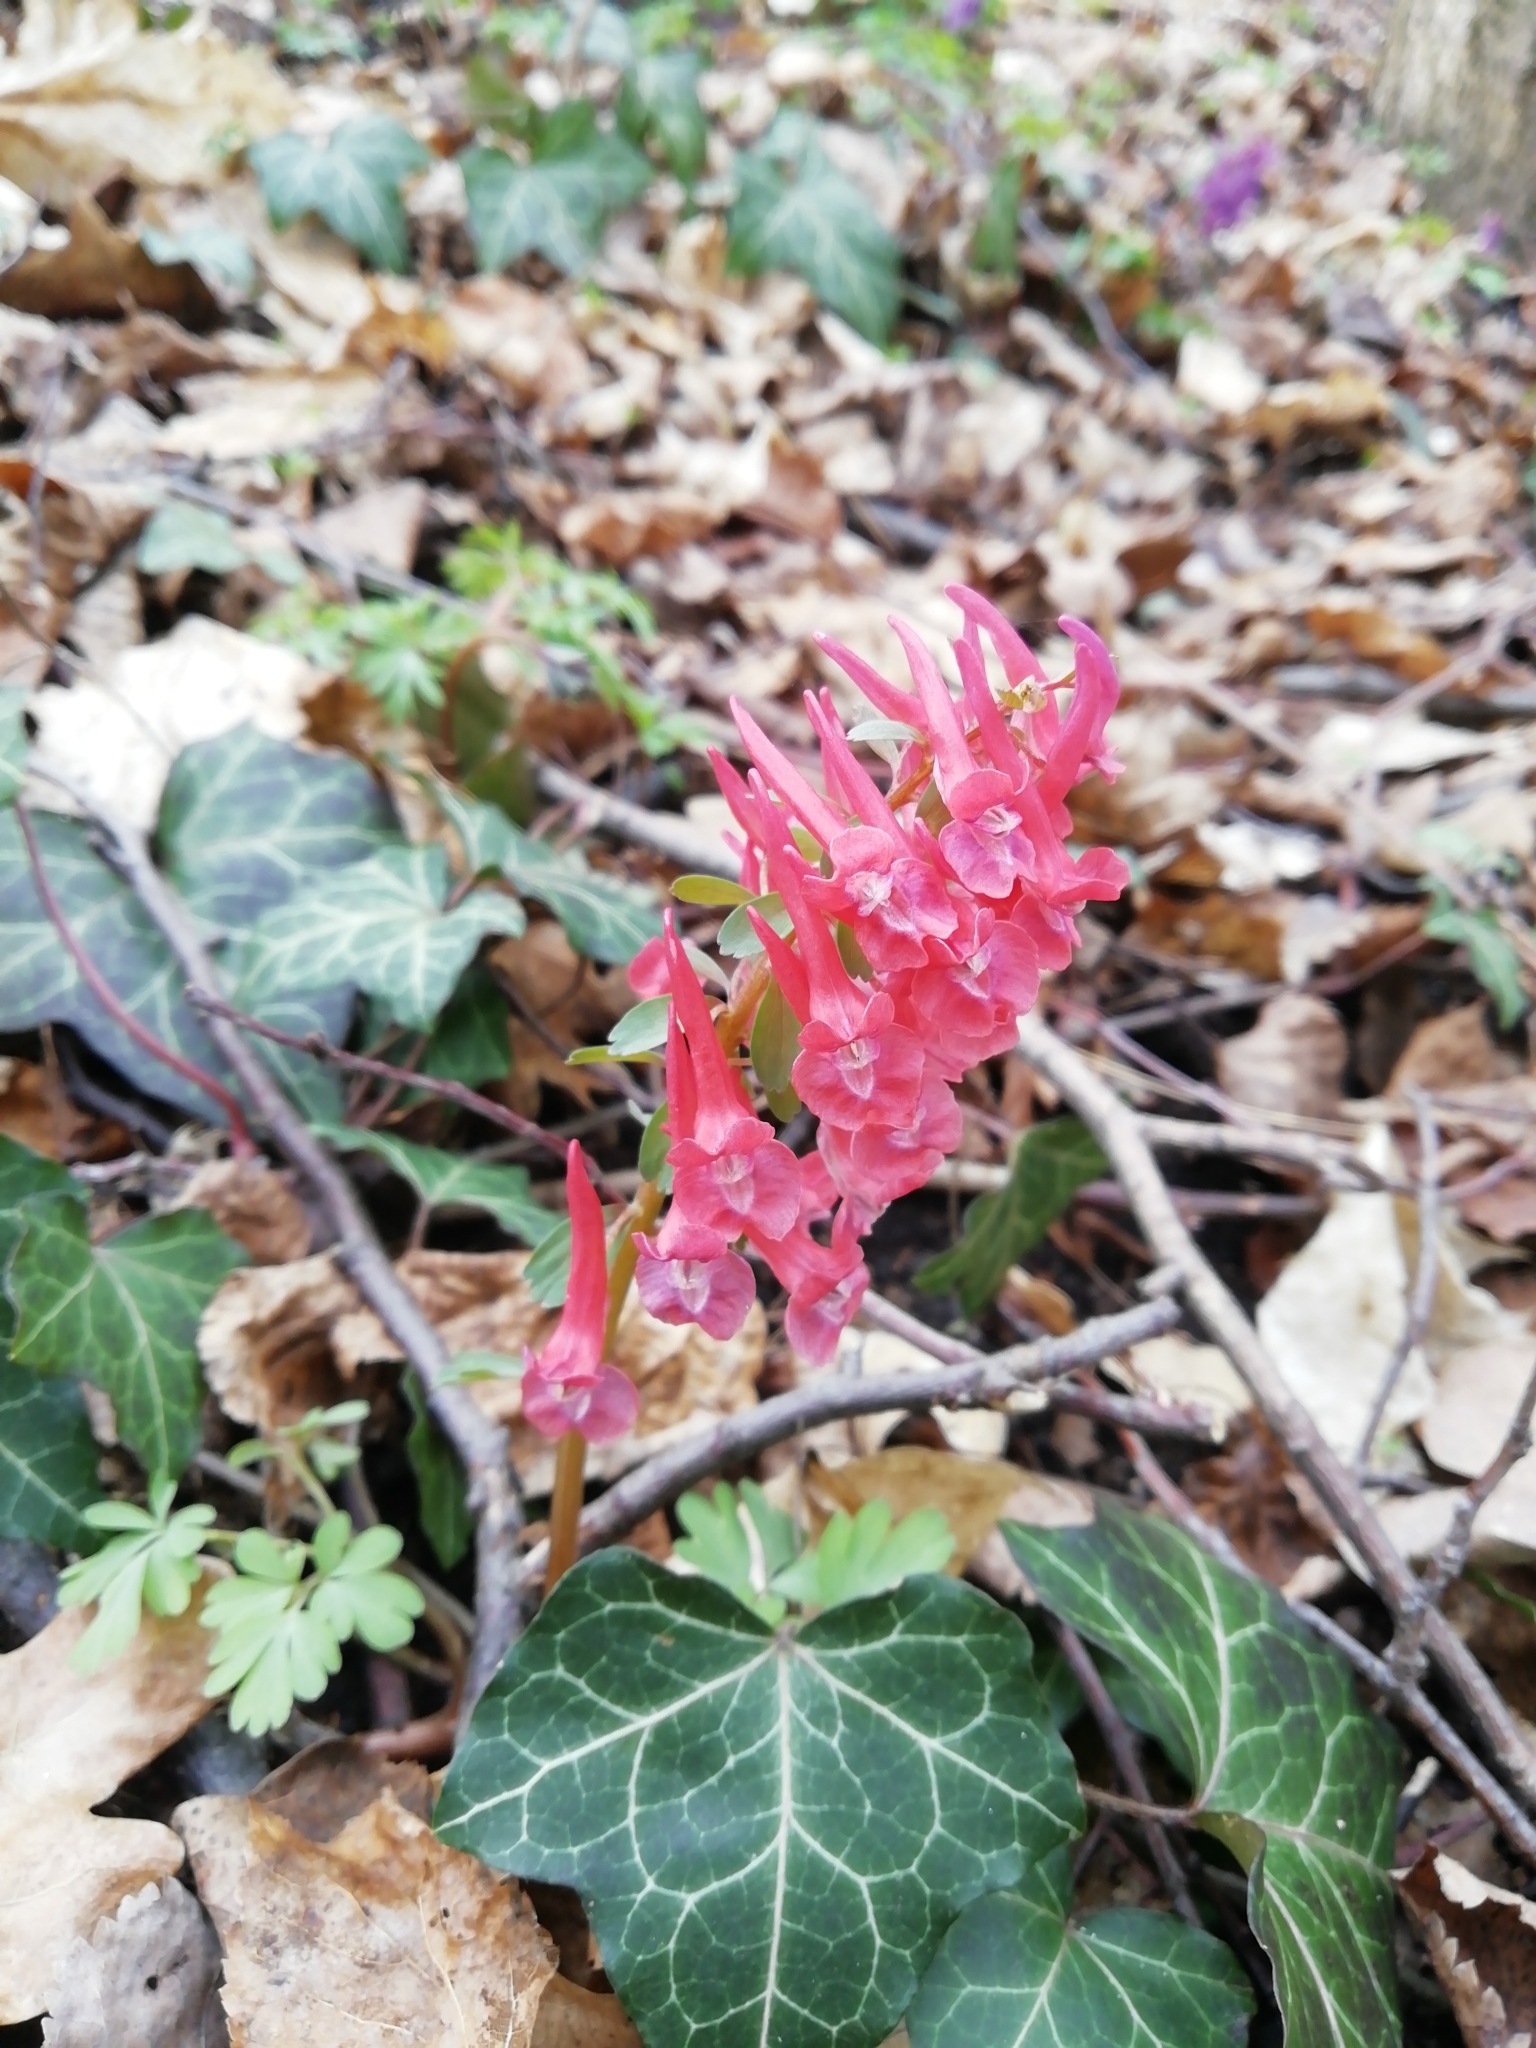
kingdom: Plantae
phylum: Tracheophyta
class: Magnoliopsida
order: Ranunculales
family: Papaveraceae
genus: Corydalis
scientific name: Corydalis solida
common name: Bird-in-a-bush
